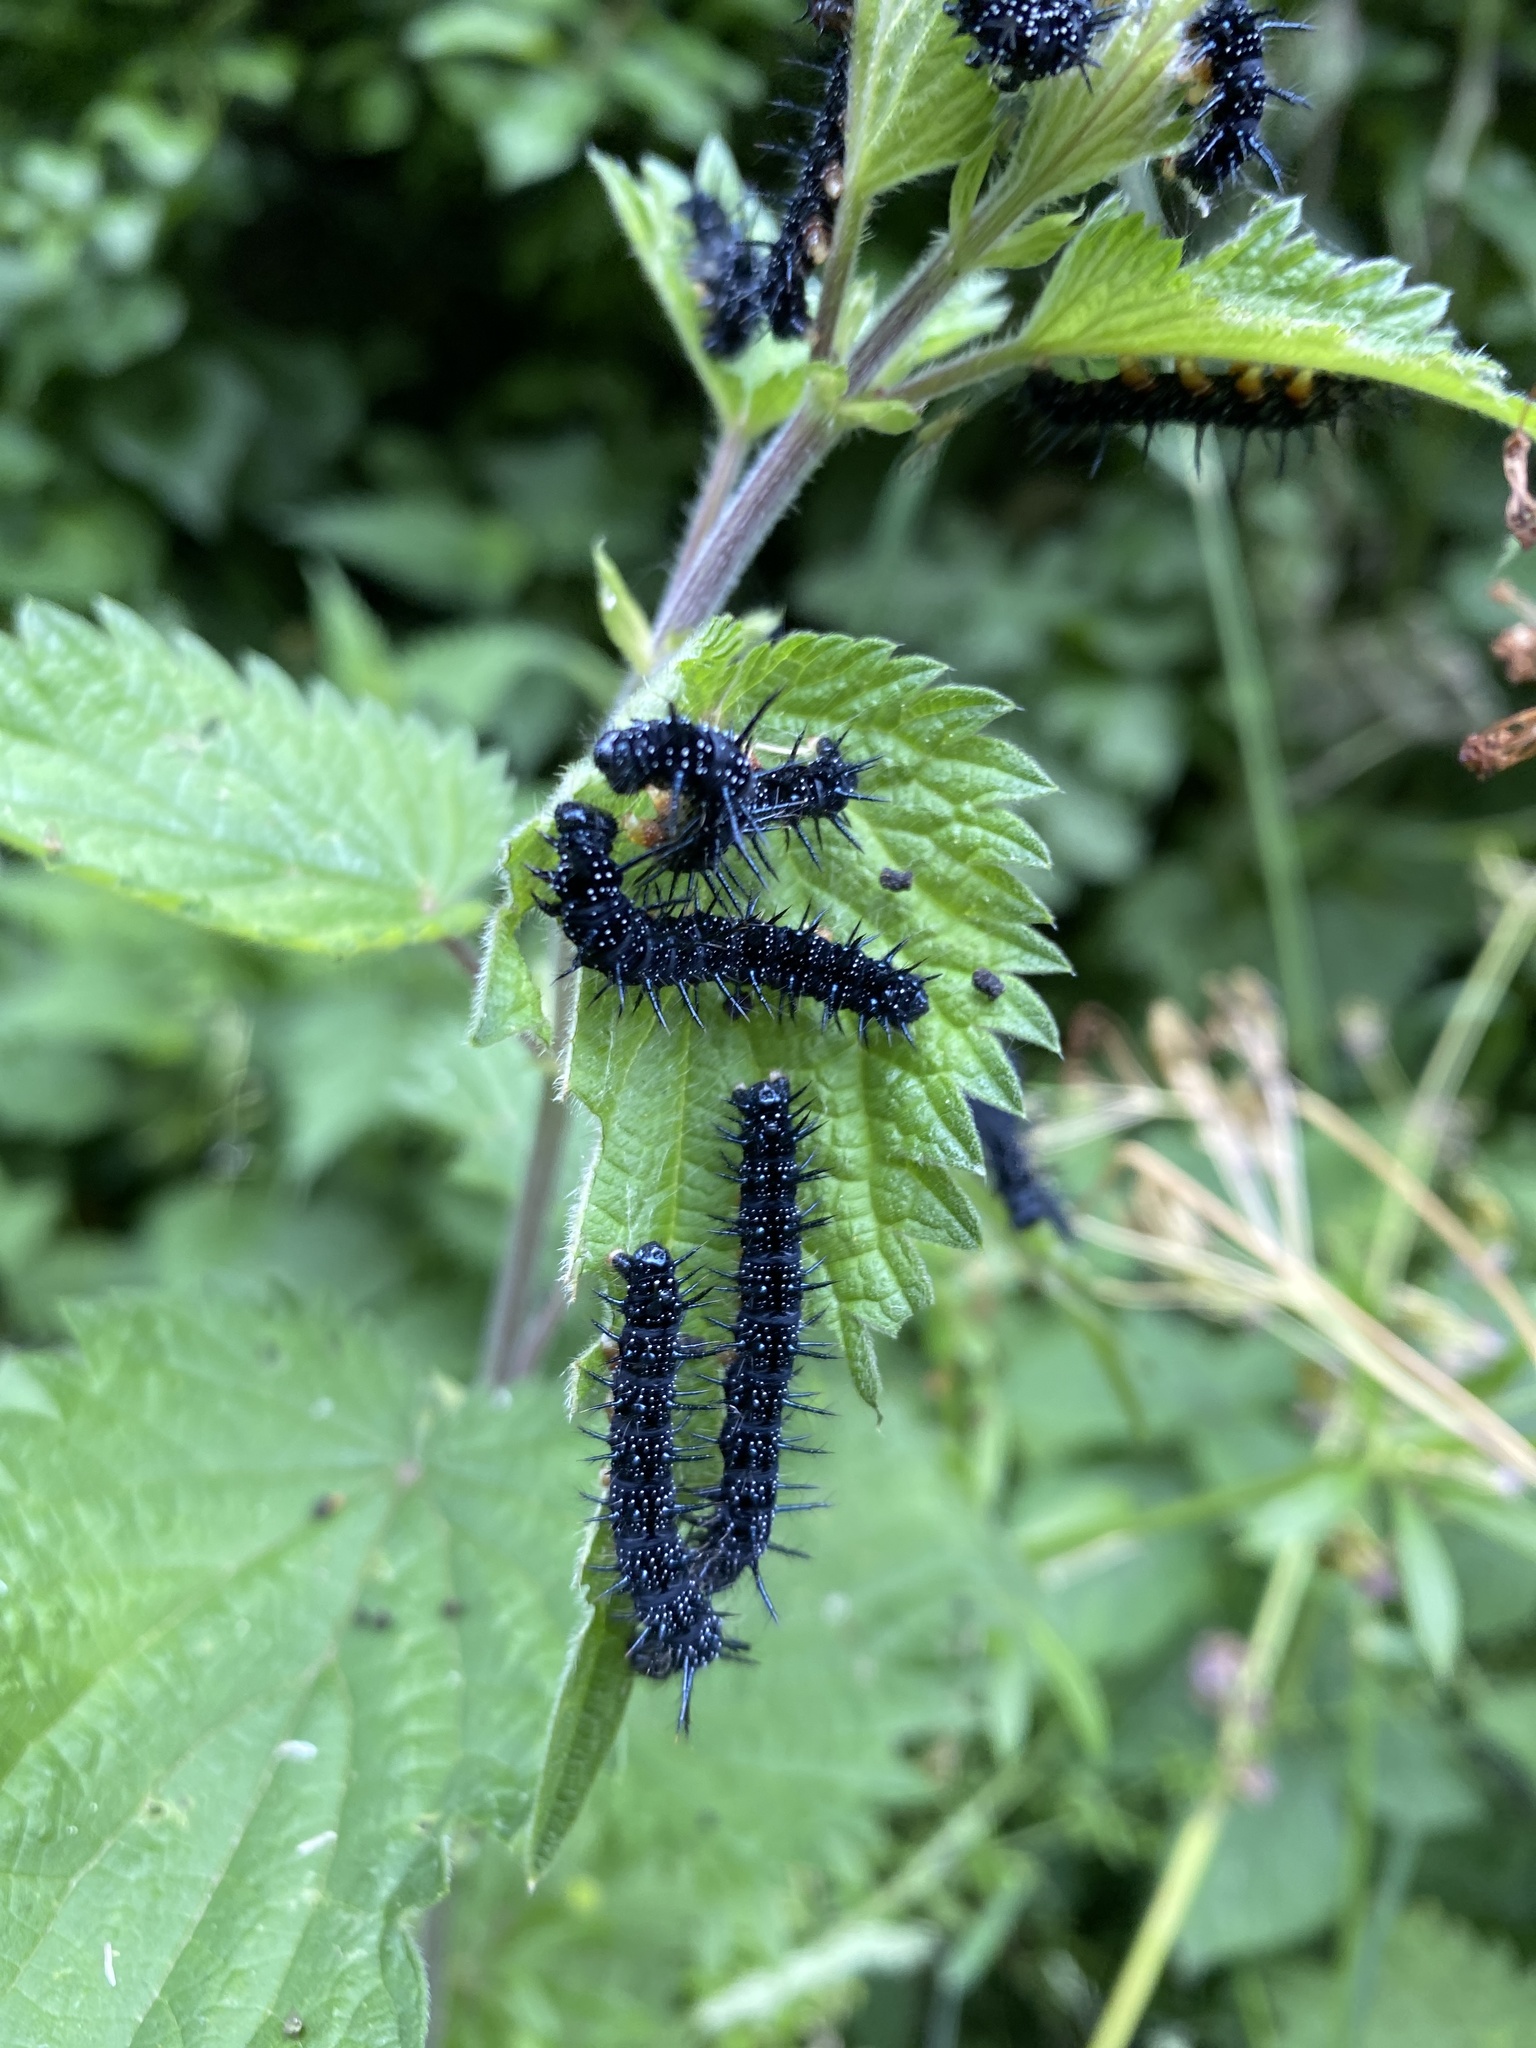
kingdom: Animalia
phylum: Arthropoda
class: Insecta
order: Lepidoptera
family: Nymphalidae
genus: Aglais
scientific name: Aglais io
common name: Peacock
